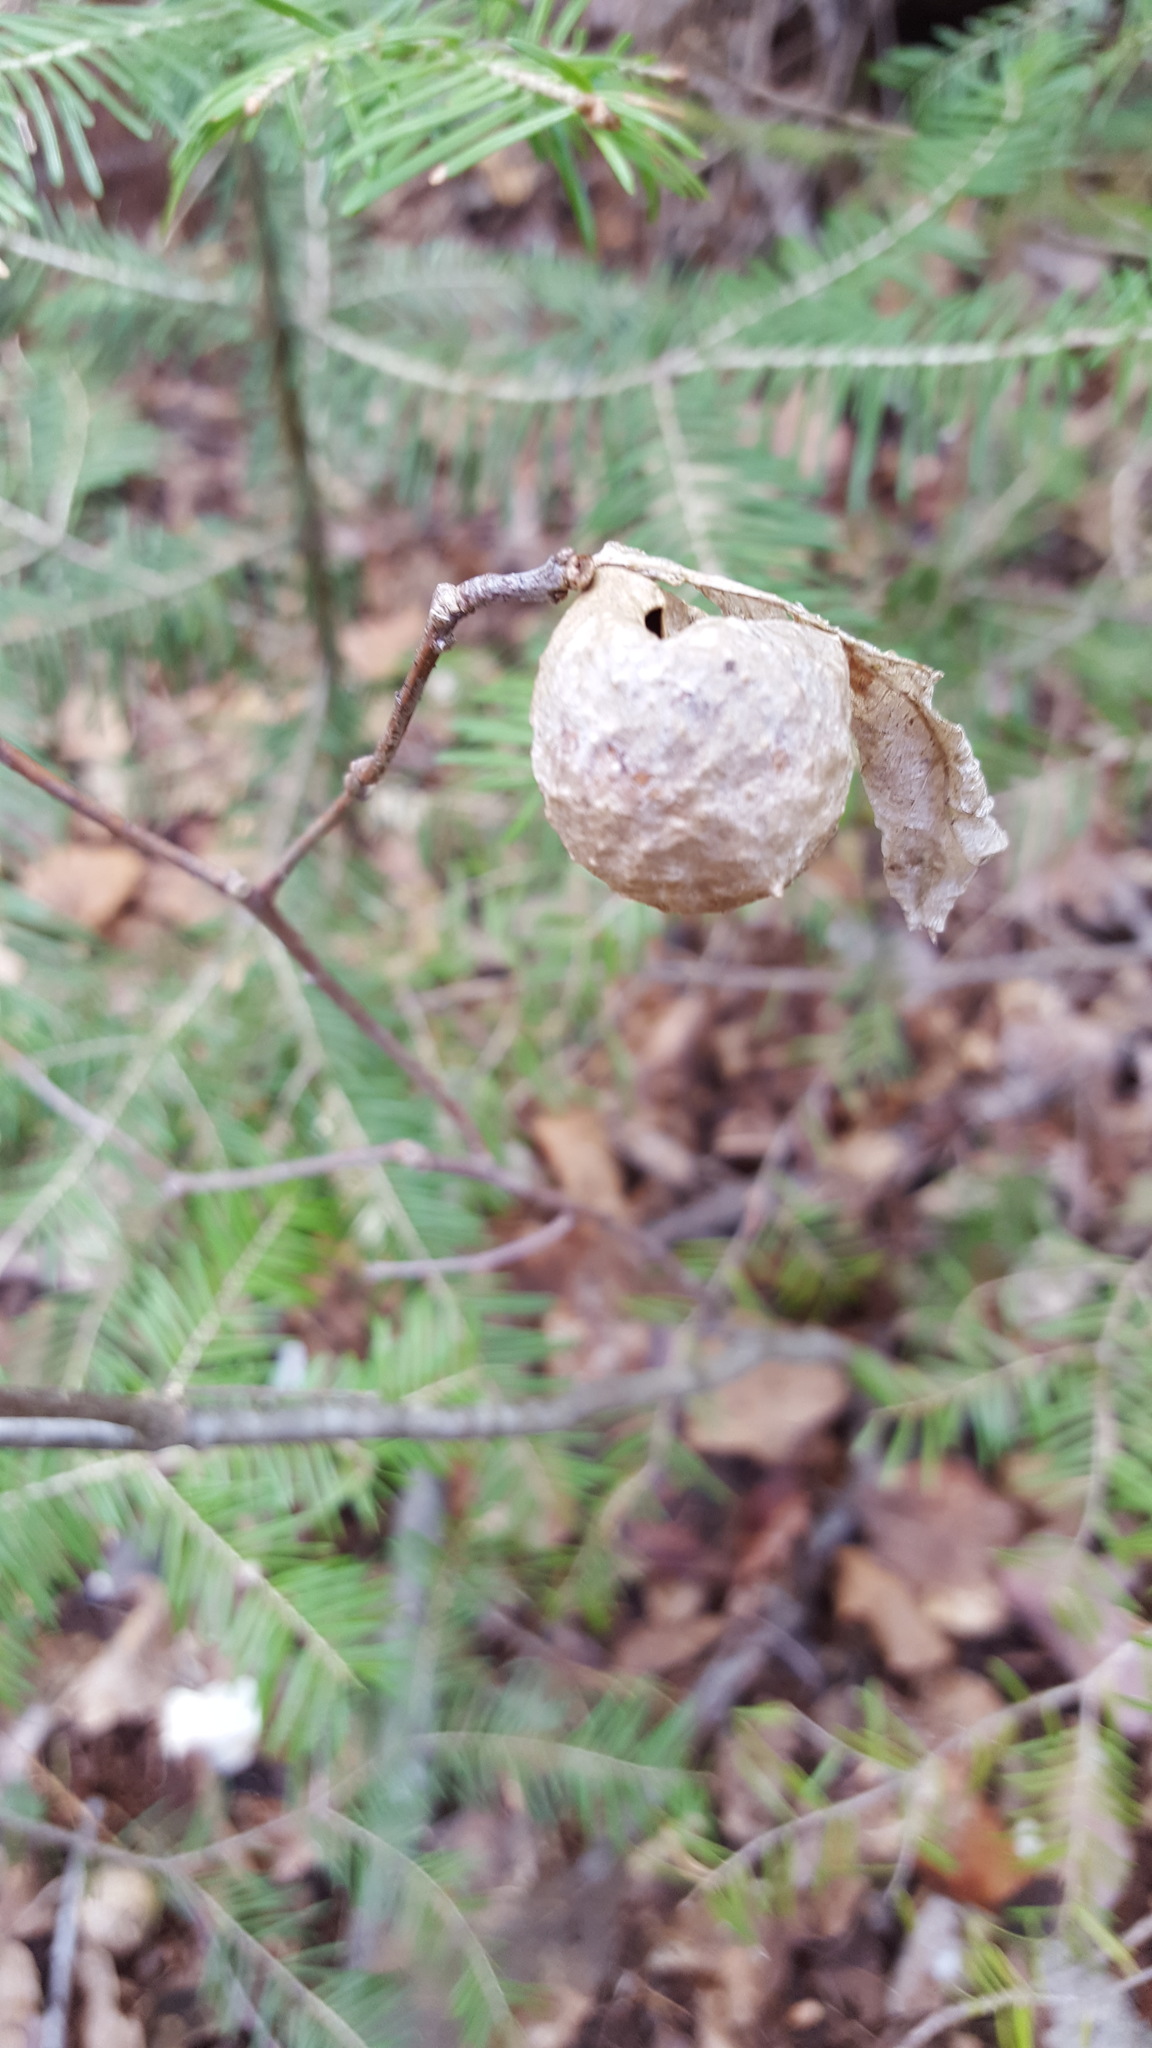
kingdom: Animalia
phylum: Arthropoda
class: Insecta
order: Hymenoptera
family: Cynipidae
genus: Amphibolips
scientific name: Amphibolips
